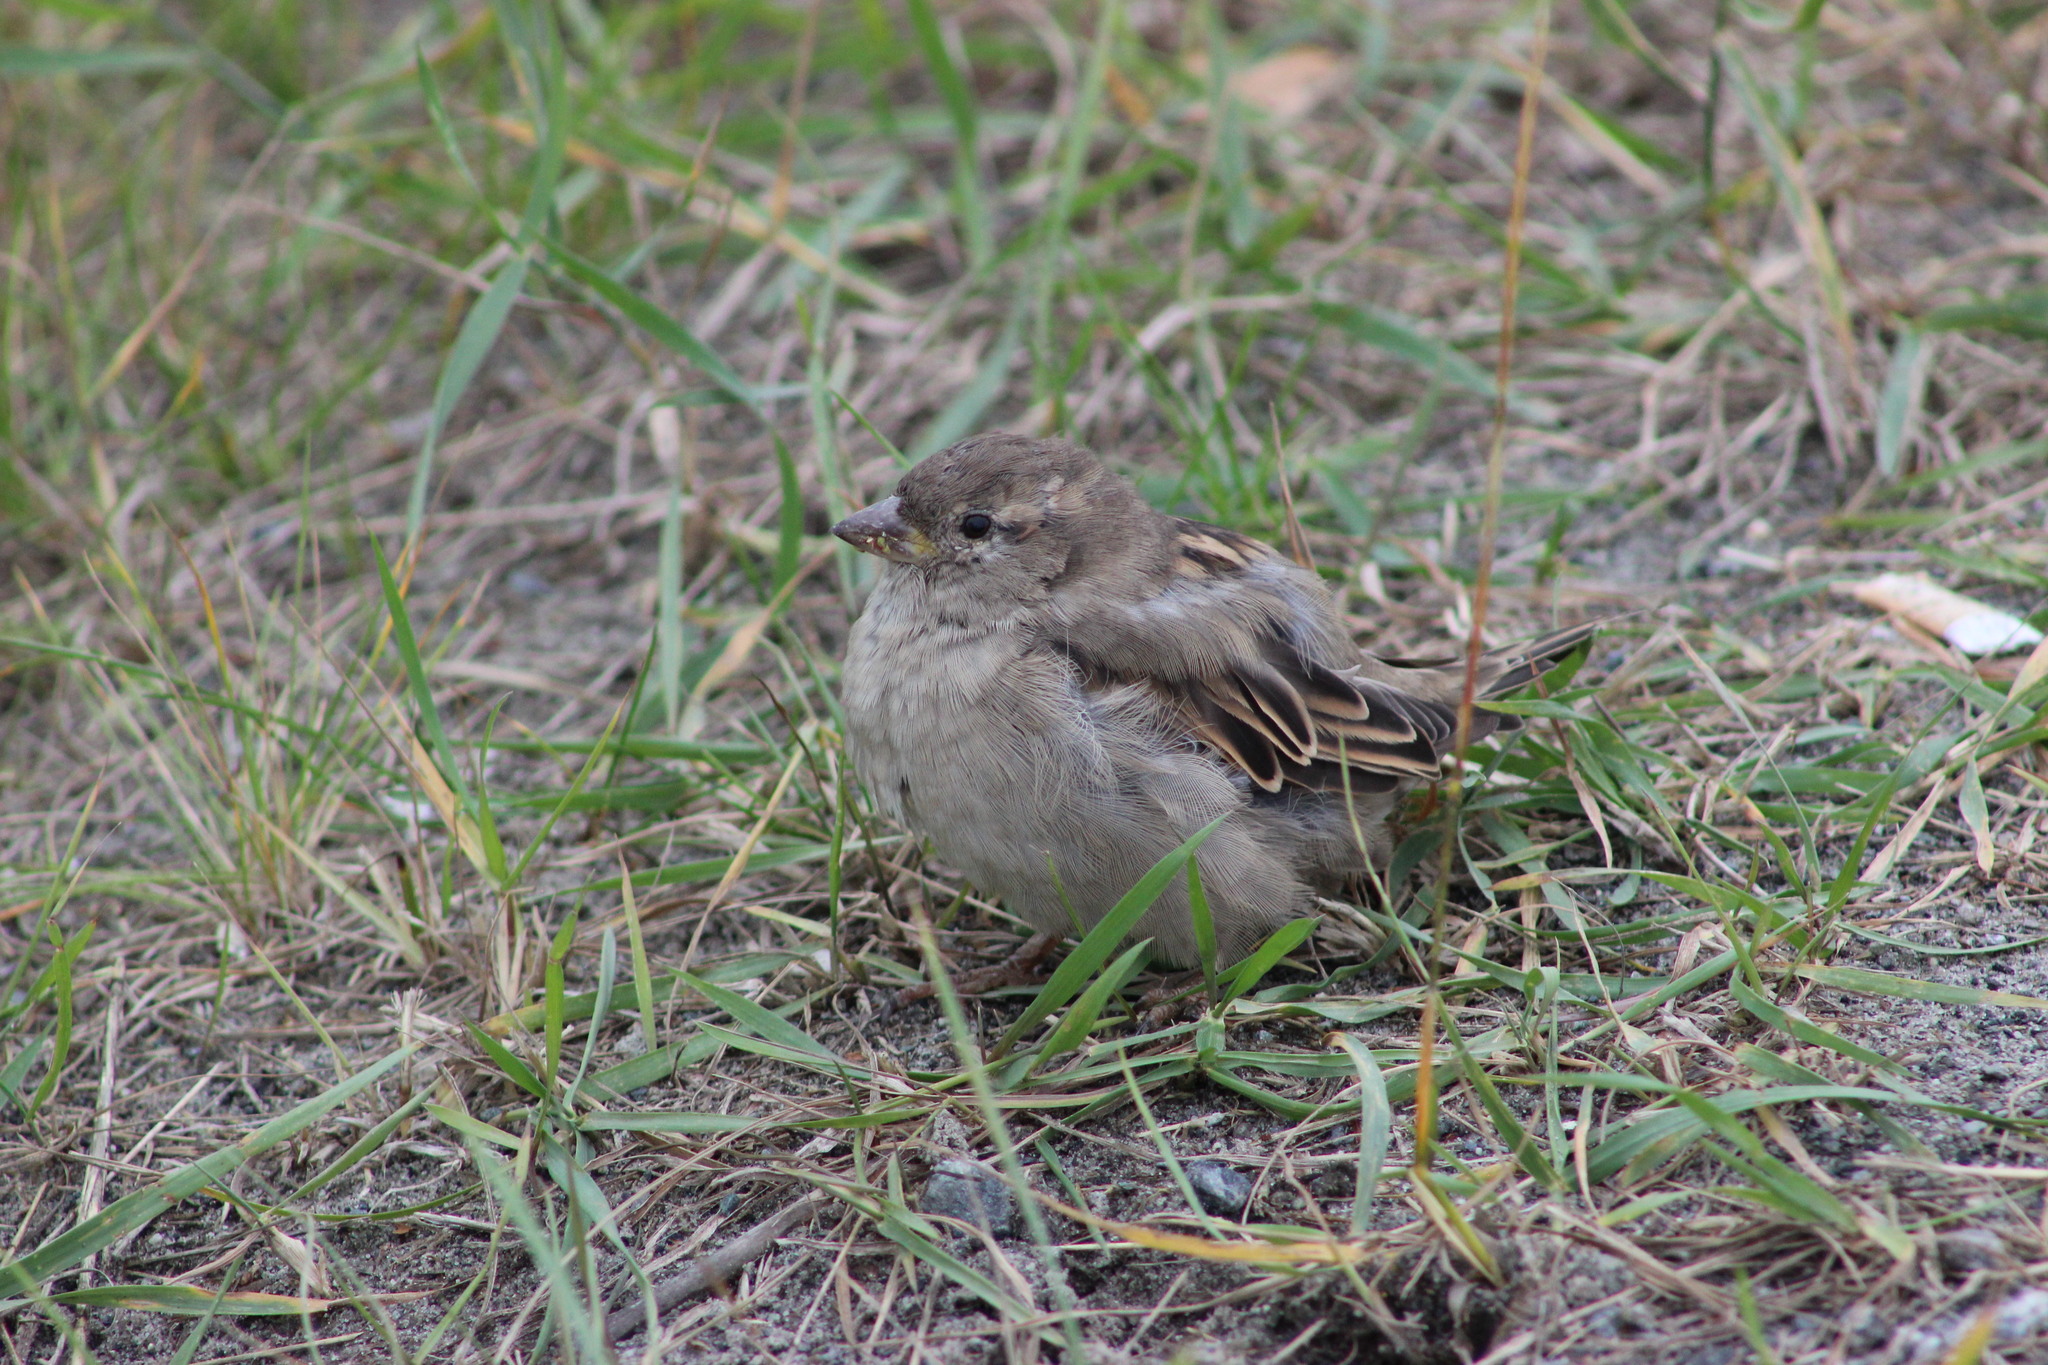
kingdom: Animalia
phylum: Chordata
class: Aves
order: Passeriformes
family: Passeridae
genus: Passer
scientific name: Passer domesticus
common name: House sparrow
